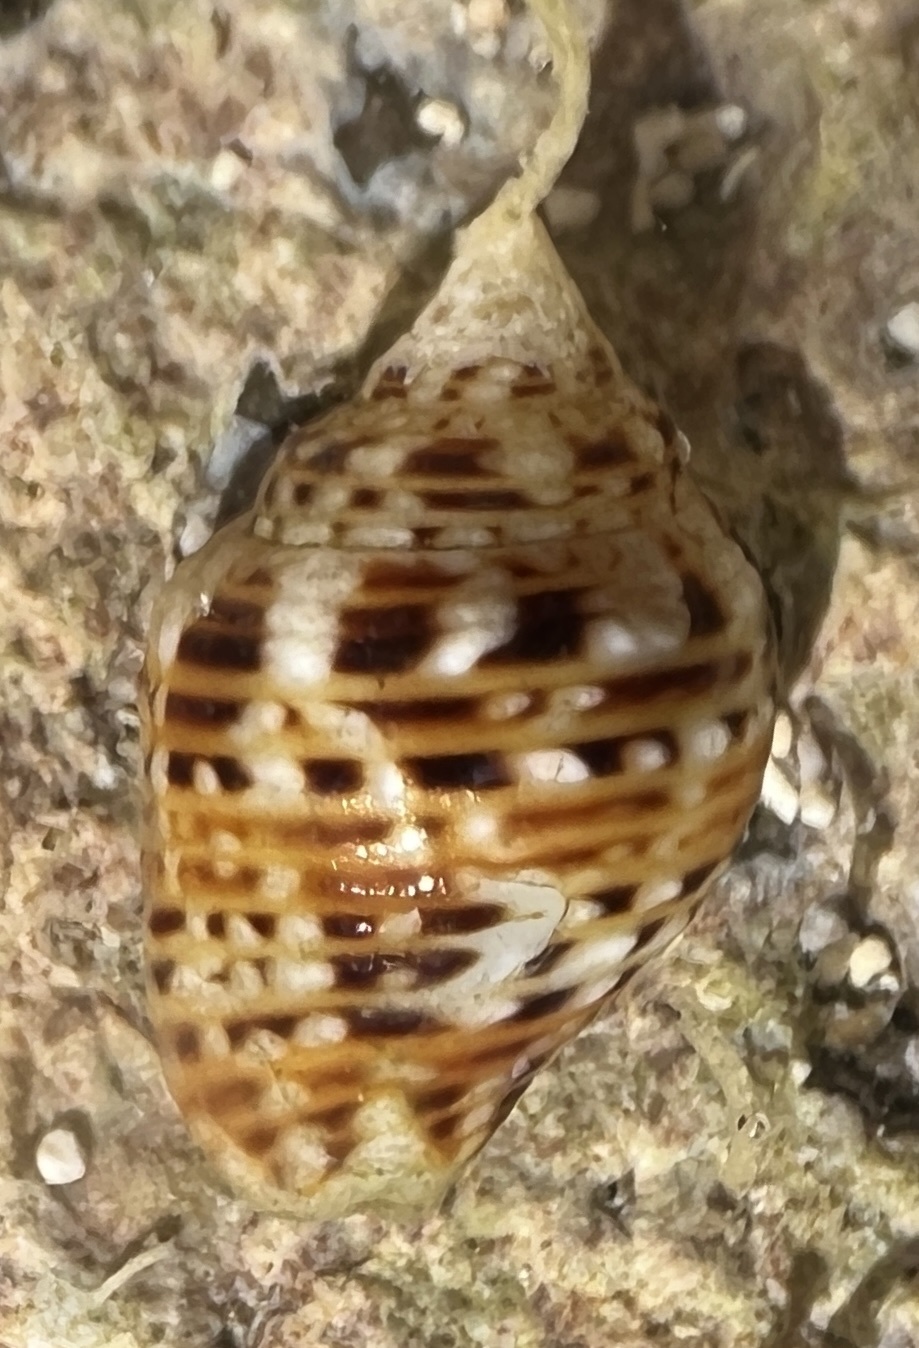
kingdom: Animalia
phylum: Mollusca
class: Gastropoda
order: Neogastropoda
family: Columbellidae
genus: Columbella
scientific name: Columbella mercatoria
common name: West indian dovesnail
